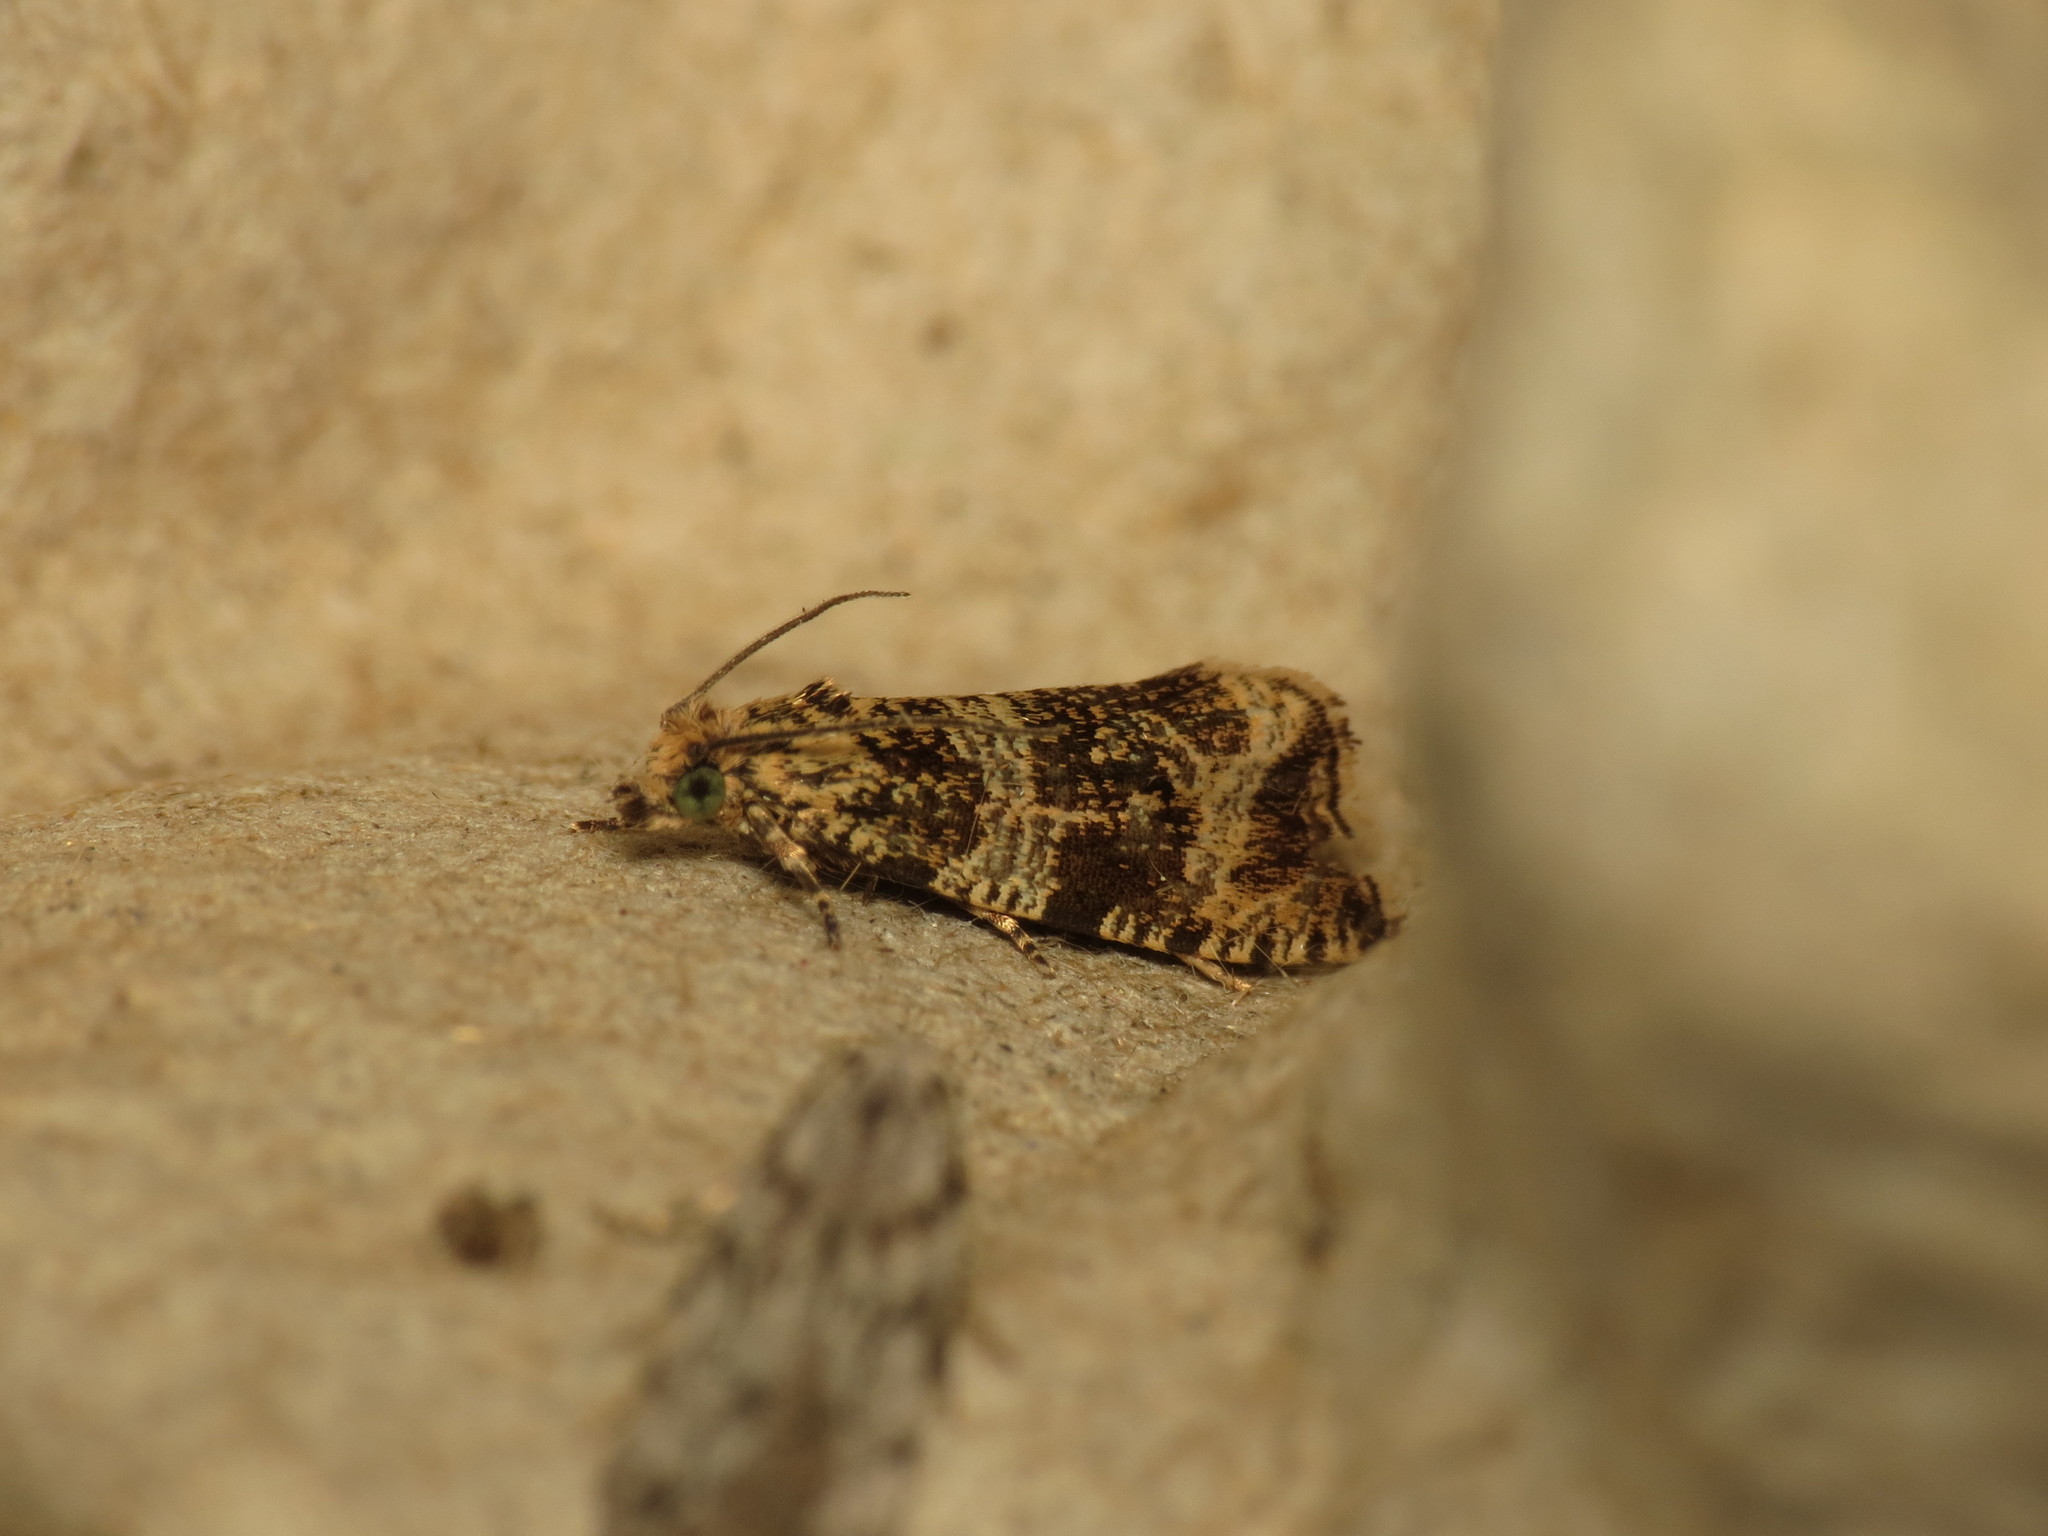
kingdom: Animalia
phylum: Arthropoda
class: Insecta
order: Lepidoptera
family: Tortricidae
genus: Syricoris
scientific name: Syricoris lacunana
